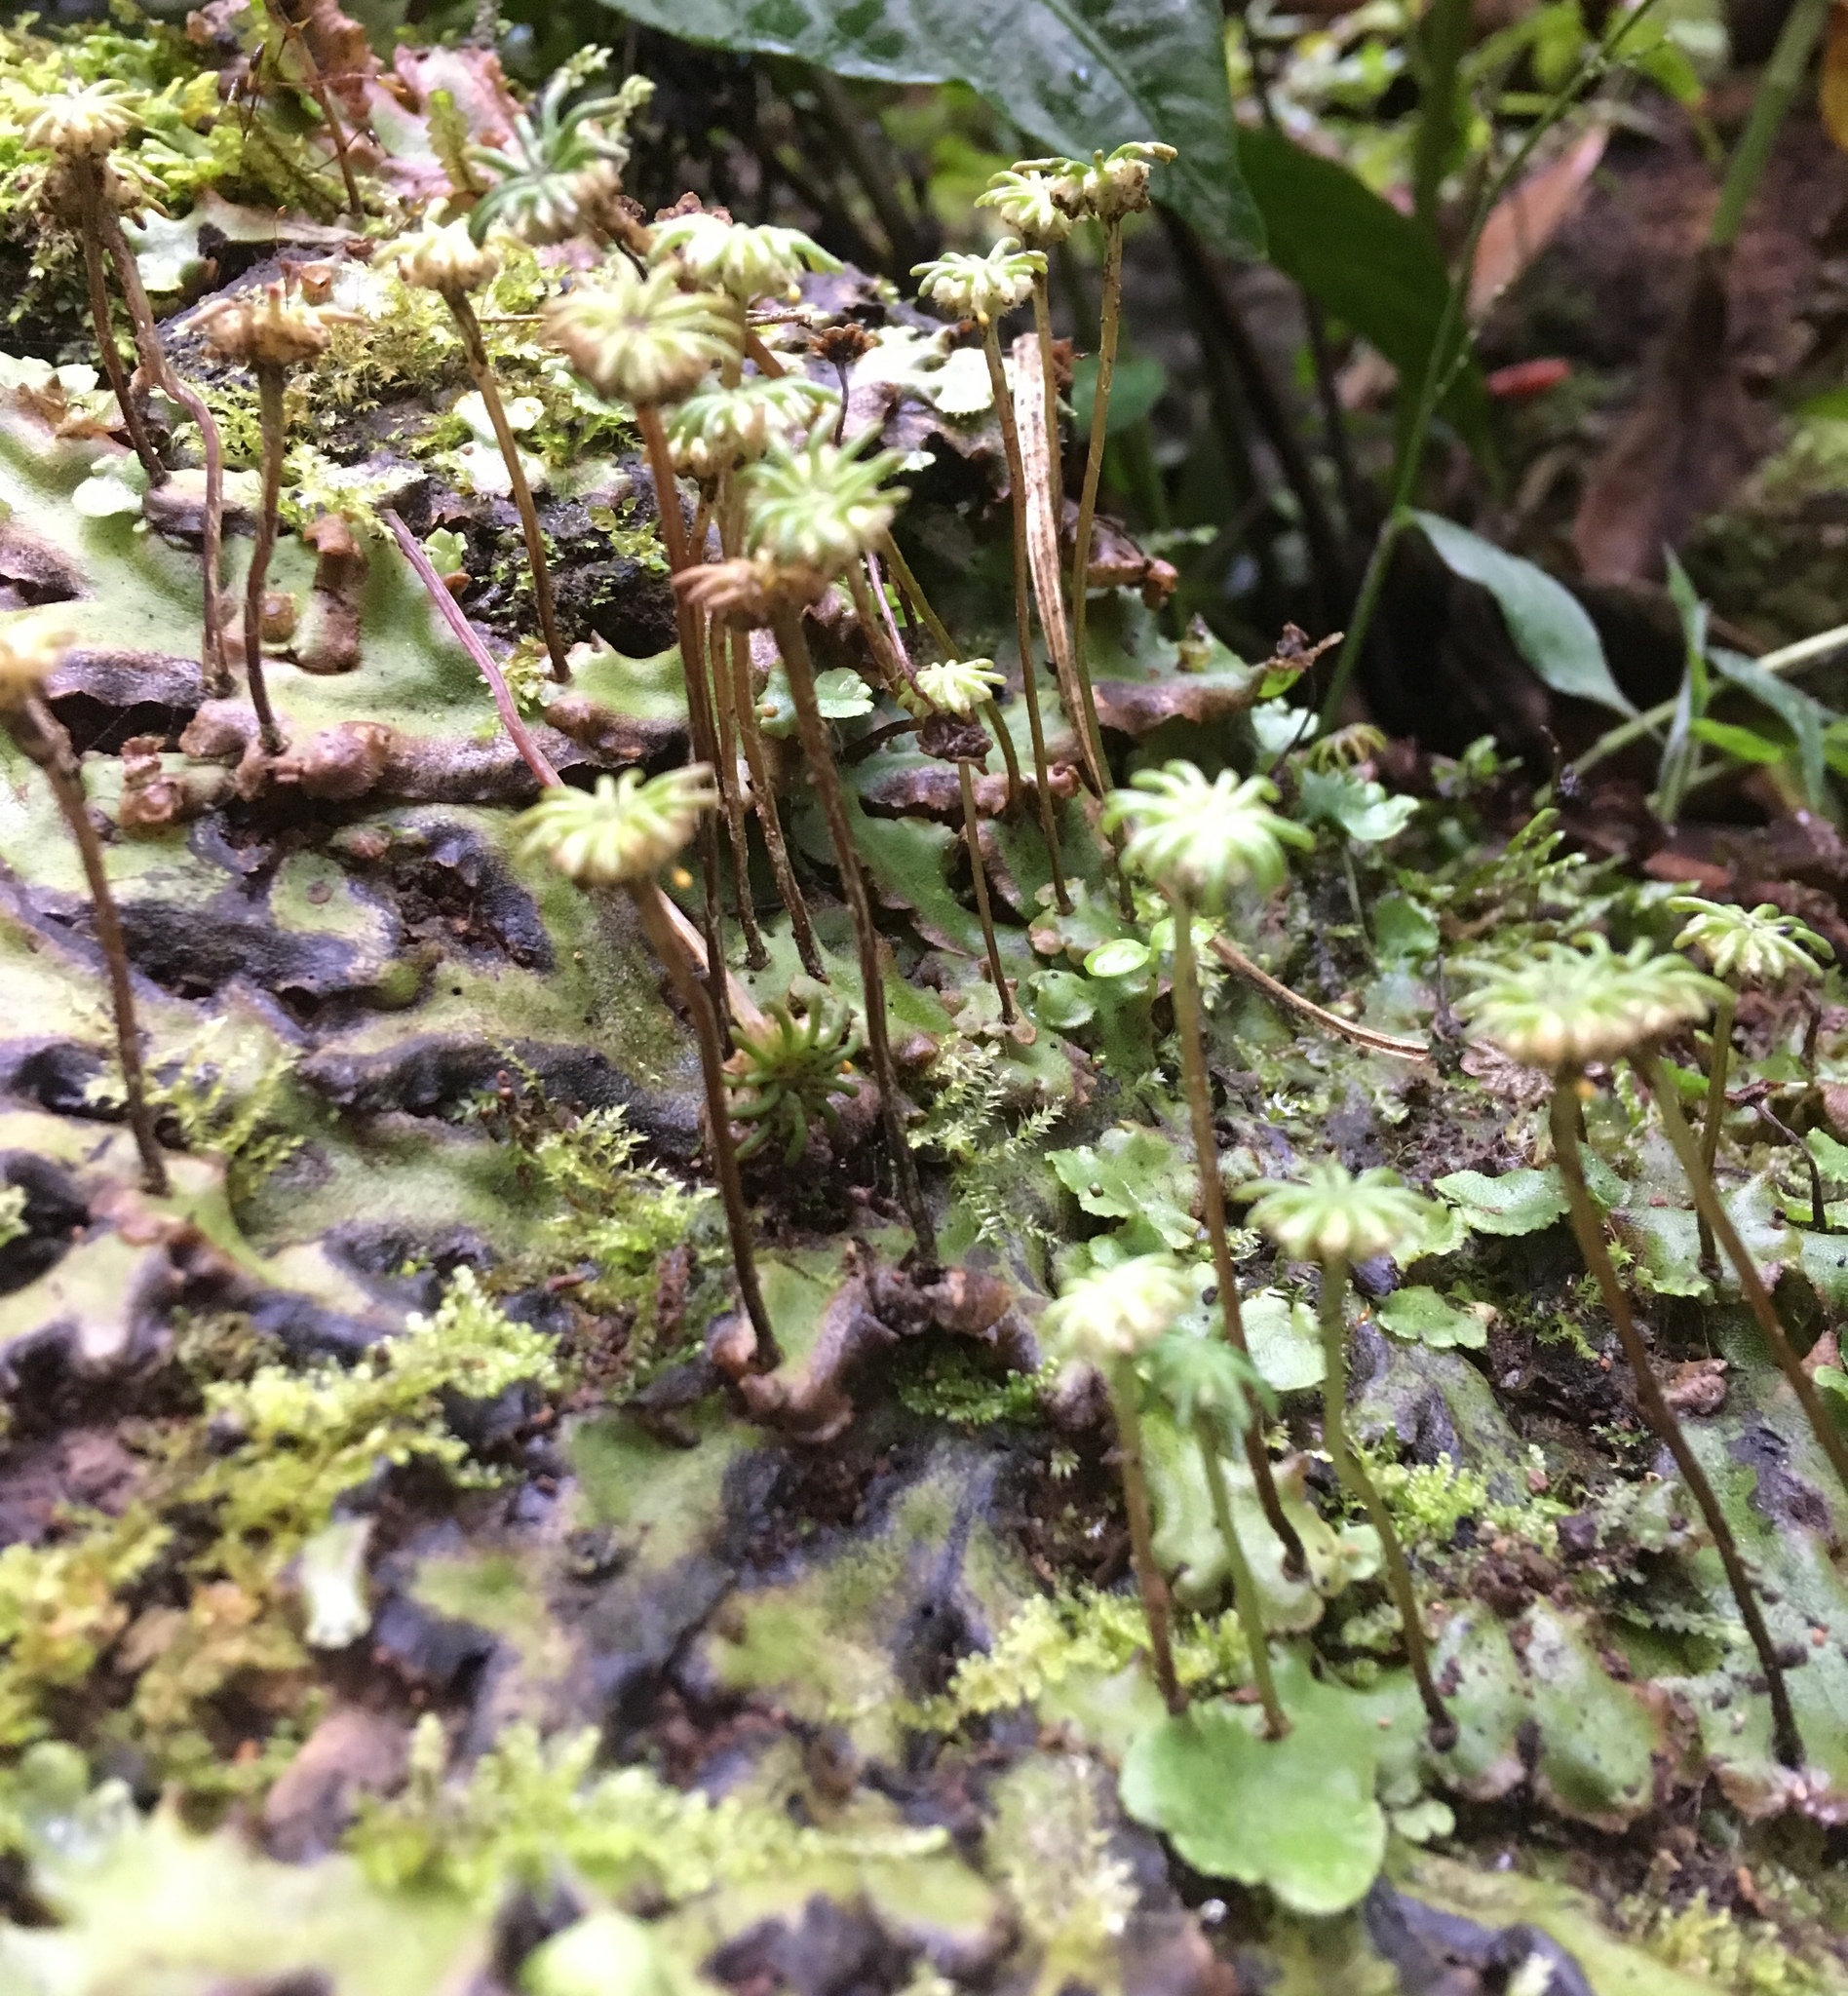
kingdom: Plantae
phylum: Marchantiophyta
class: Marchantiopsida
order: Marchantiales
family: Marchantiaceae
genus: Marchantia
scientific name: Marchantia polymorpha
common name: Common liverwort
